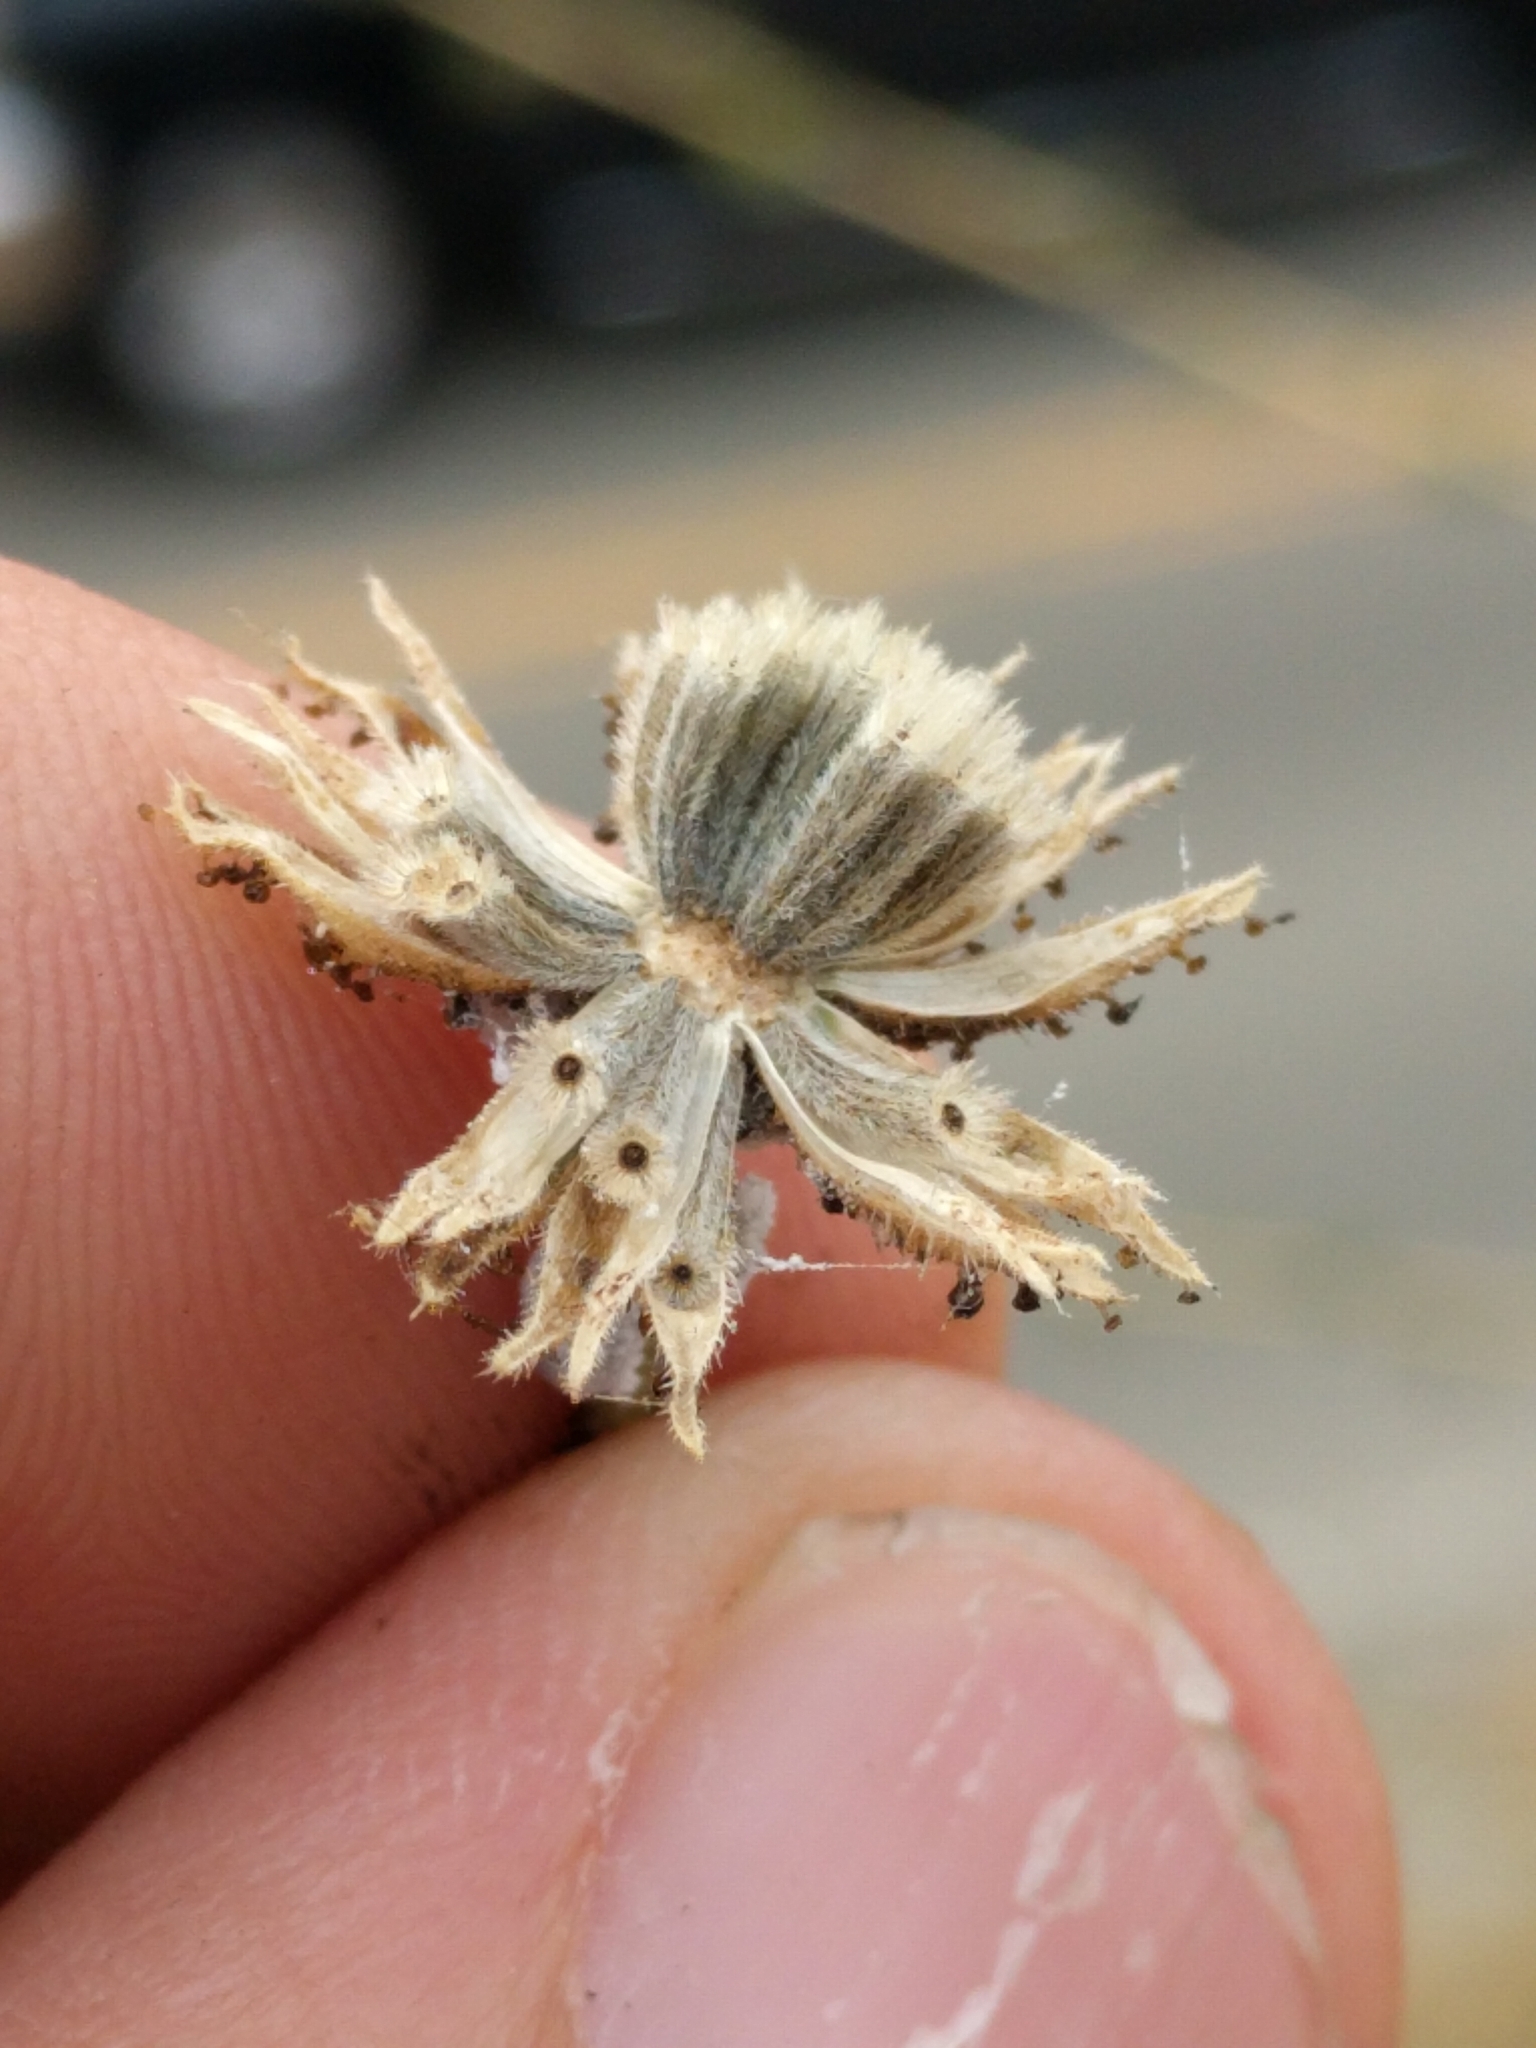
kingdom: Plantae
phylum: Tracheophyta
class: Magnoliopsida
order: Asterales
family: Asteraceae
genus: Blepharizonia
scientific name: Blepharizonia laxa
